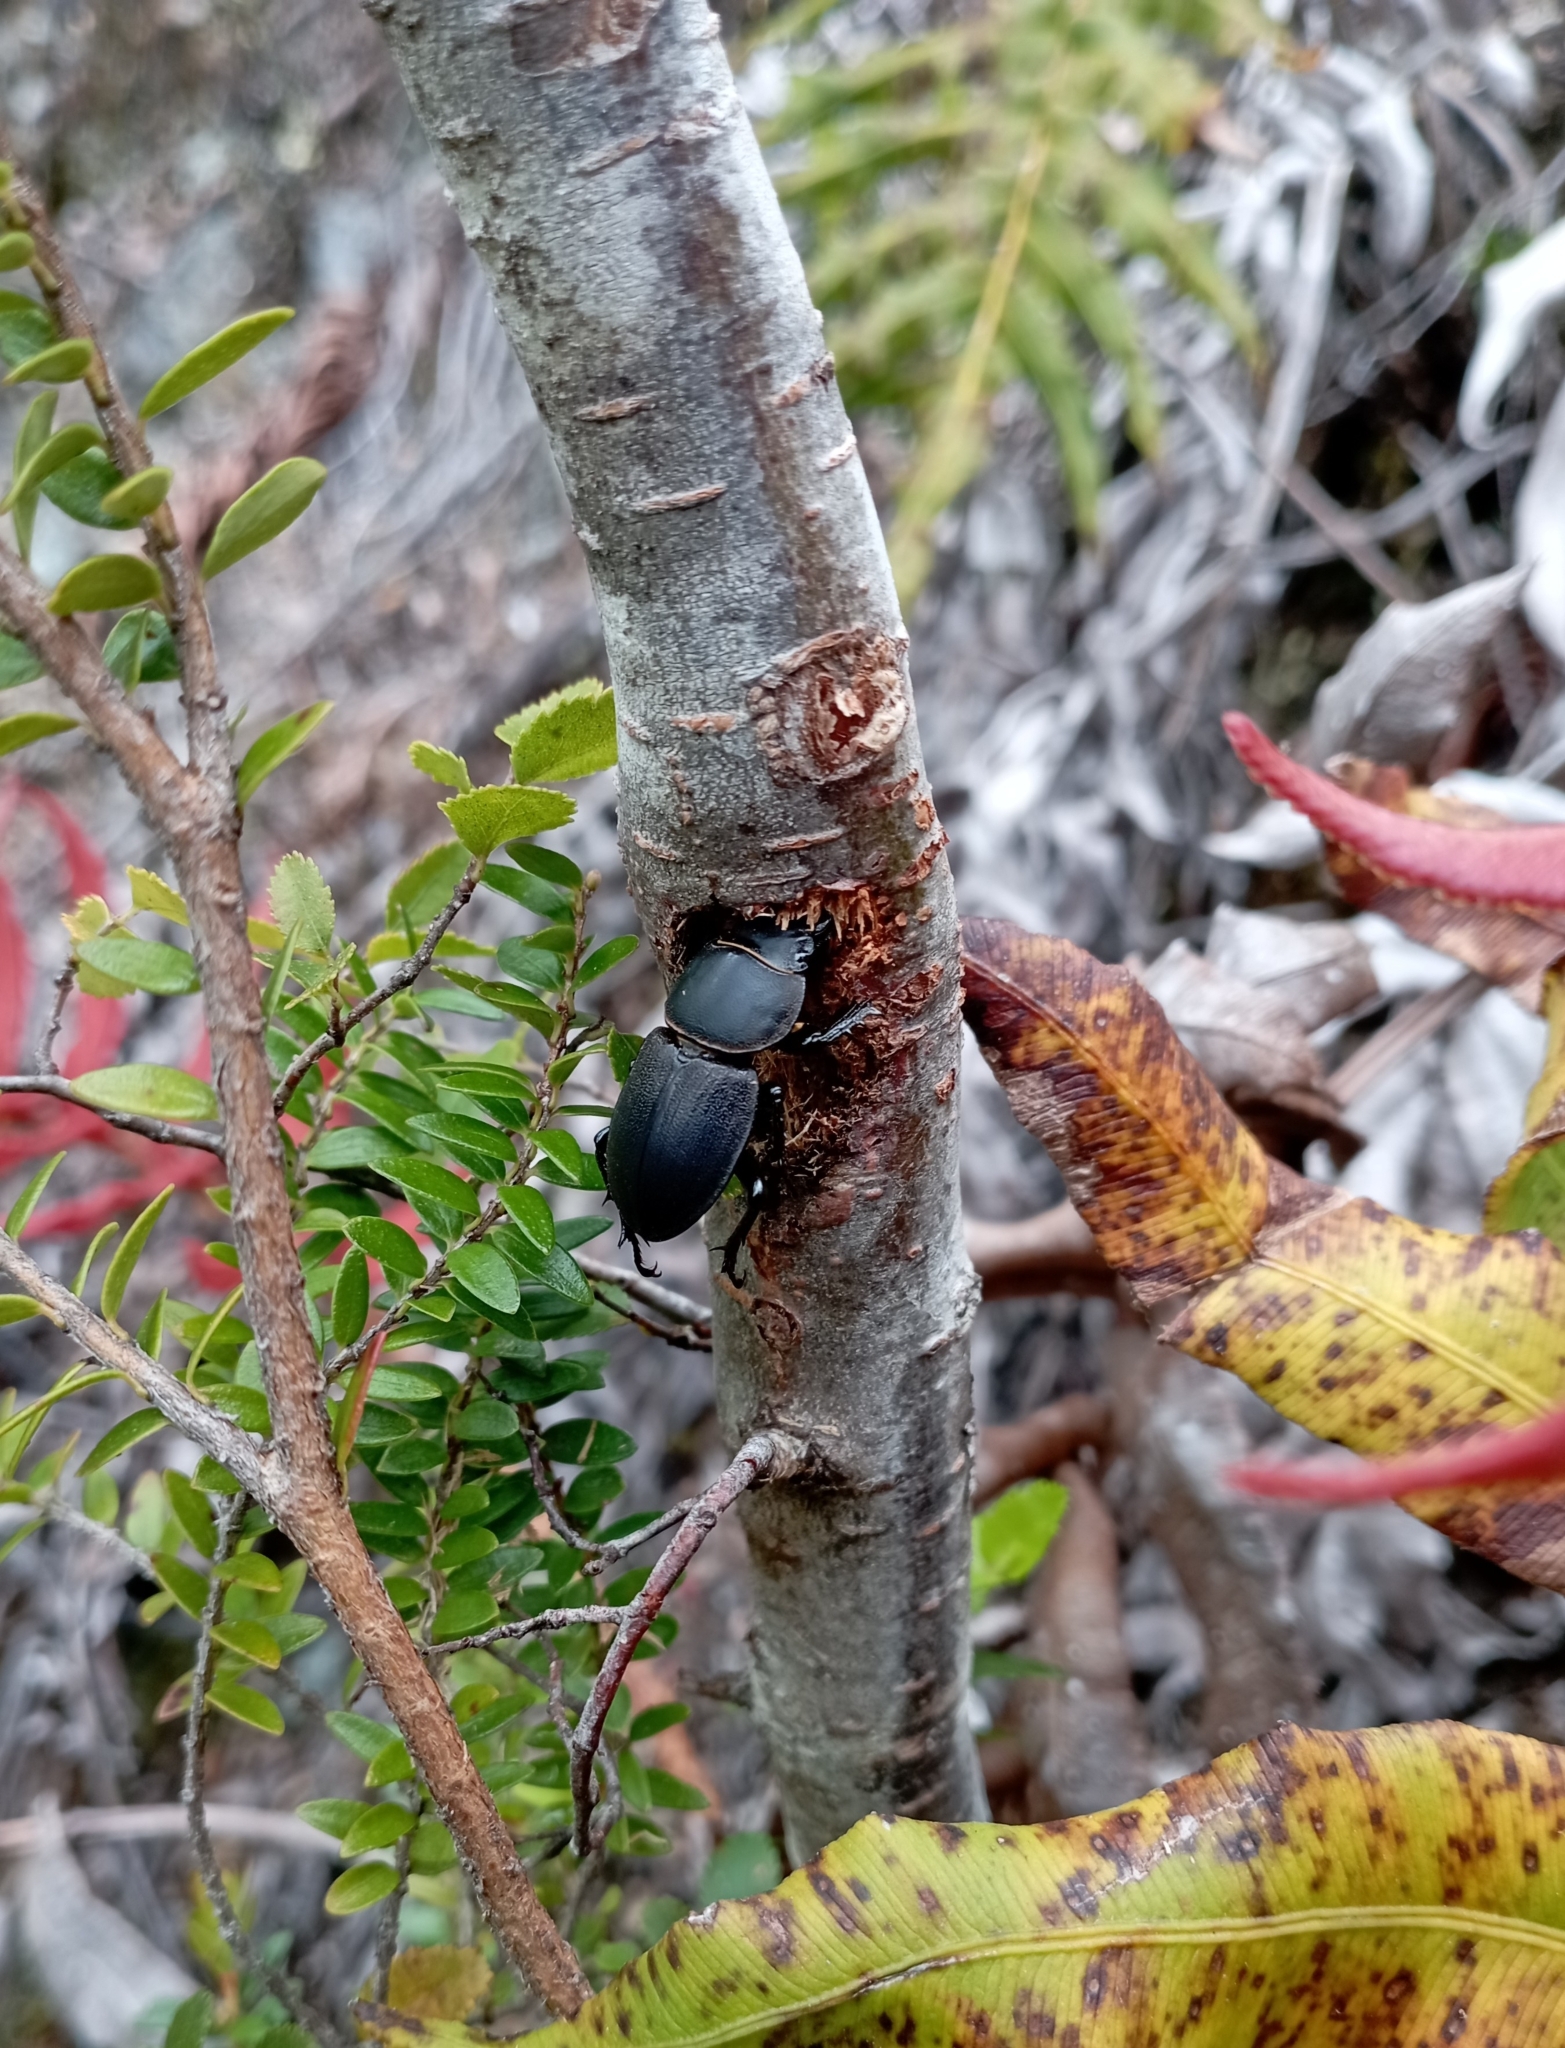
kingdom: Animalia
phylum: Arthropoda
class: Insecta
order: Coleoptera
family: Lucanidae
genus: Apterodorcus
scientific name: Apterodorcus bacchus
